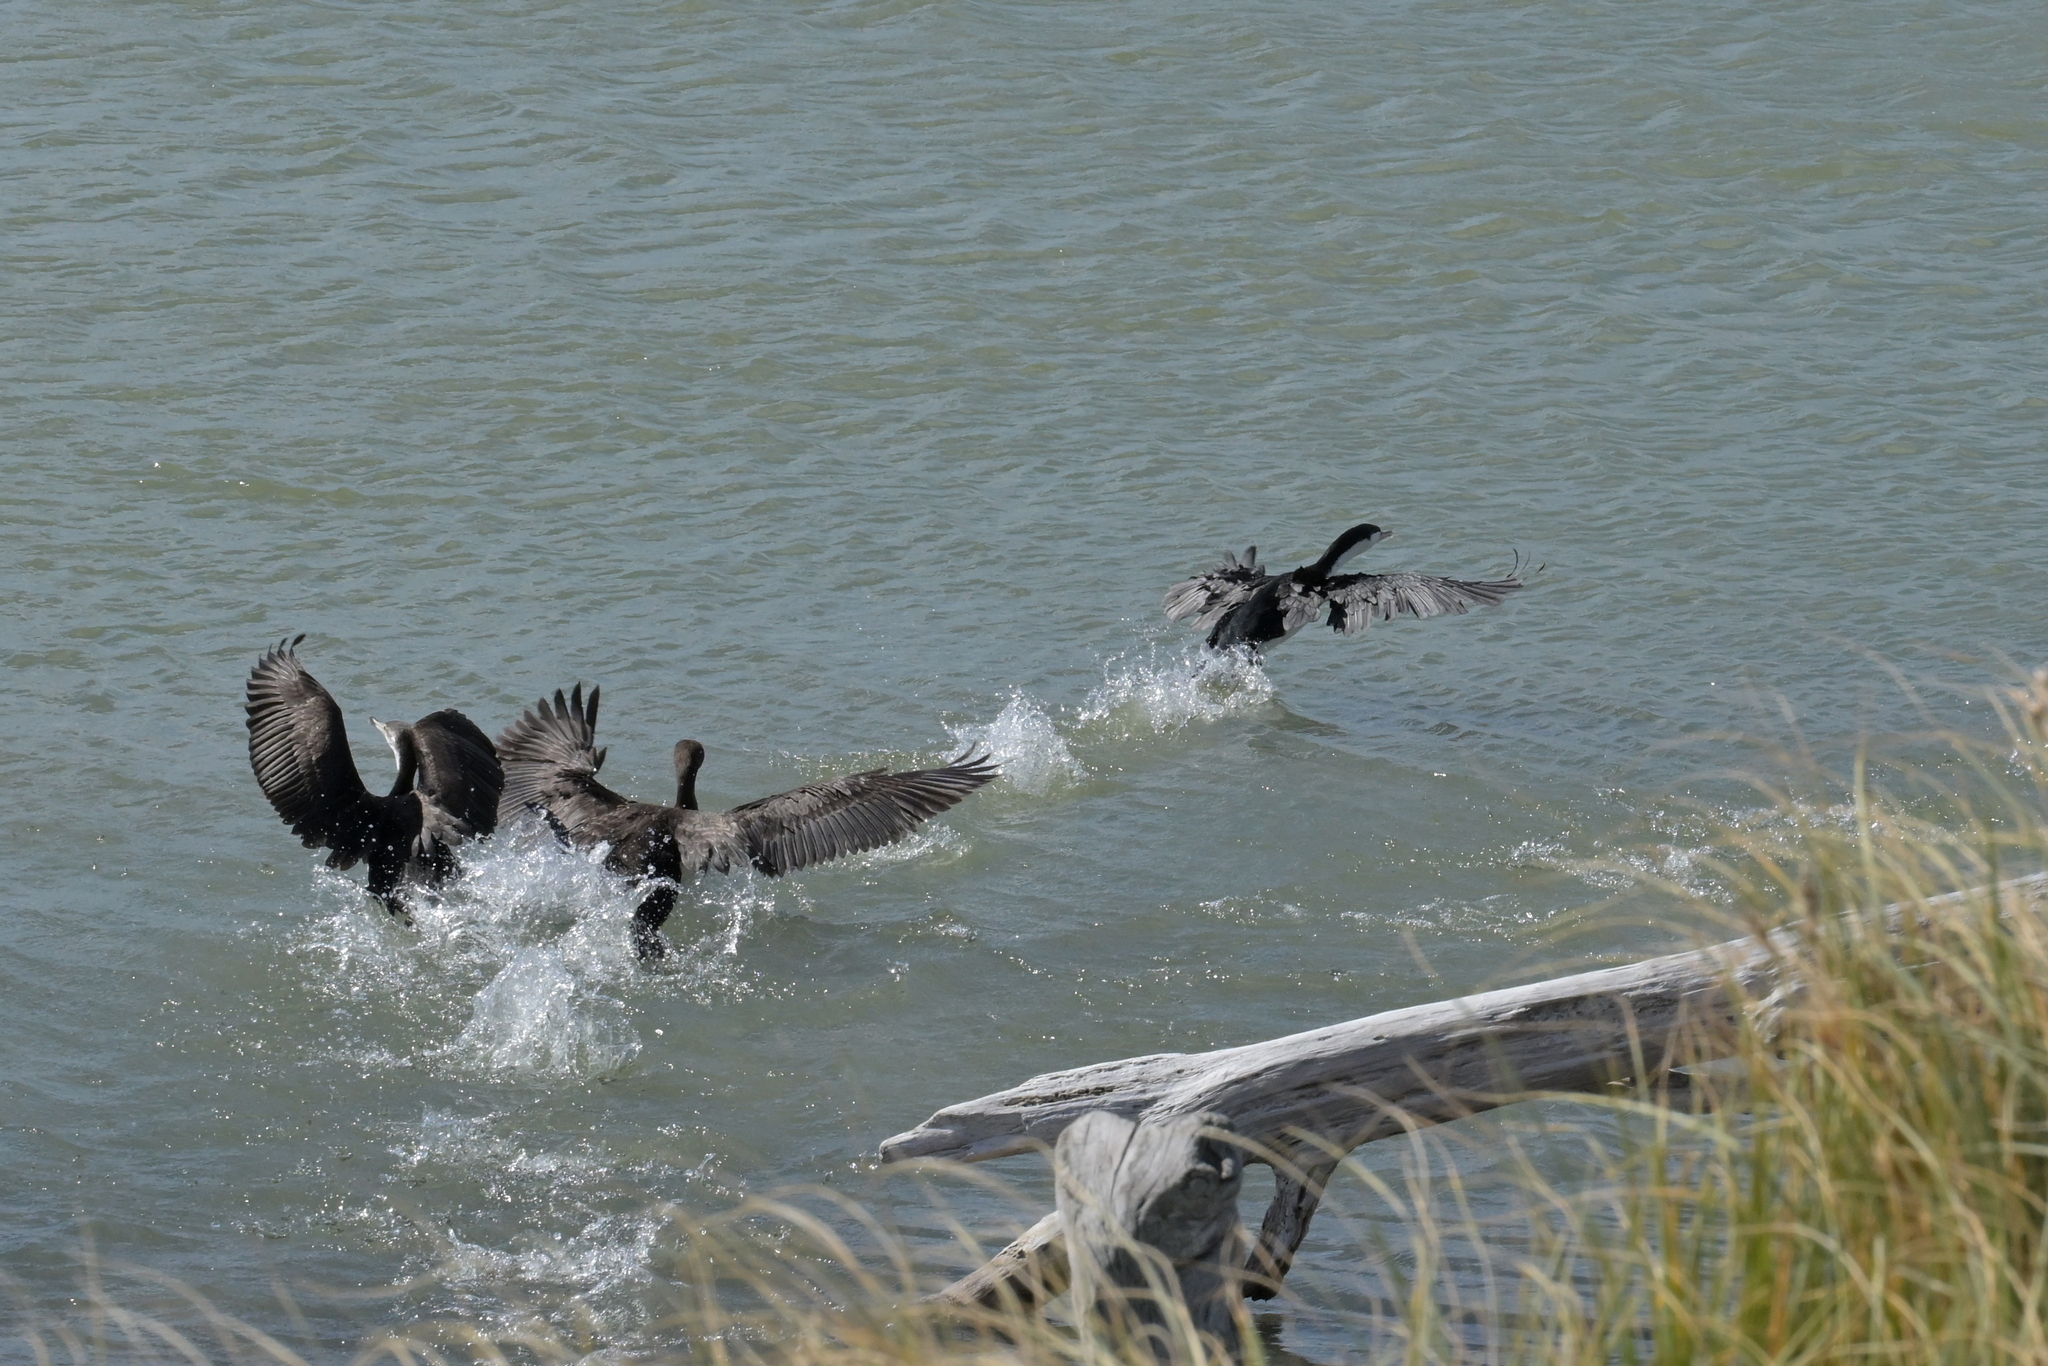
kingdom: Animalia
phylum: Chordata
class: Aves
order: Suliformes
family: Phalacrocoracidae
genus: Phalacrocorax
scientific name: Phalacrocorax varius
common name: Pied cormorant
